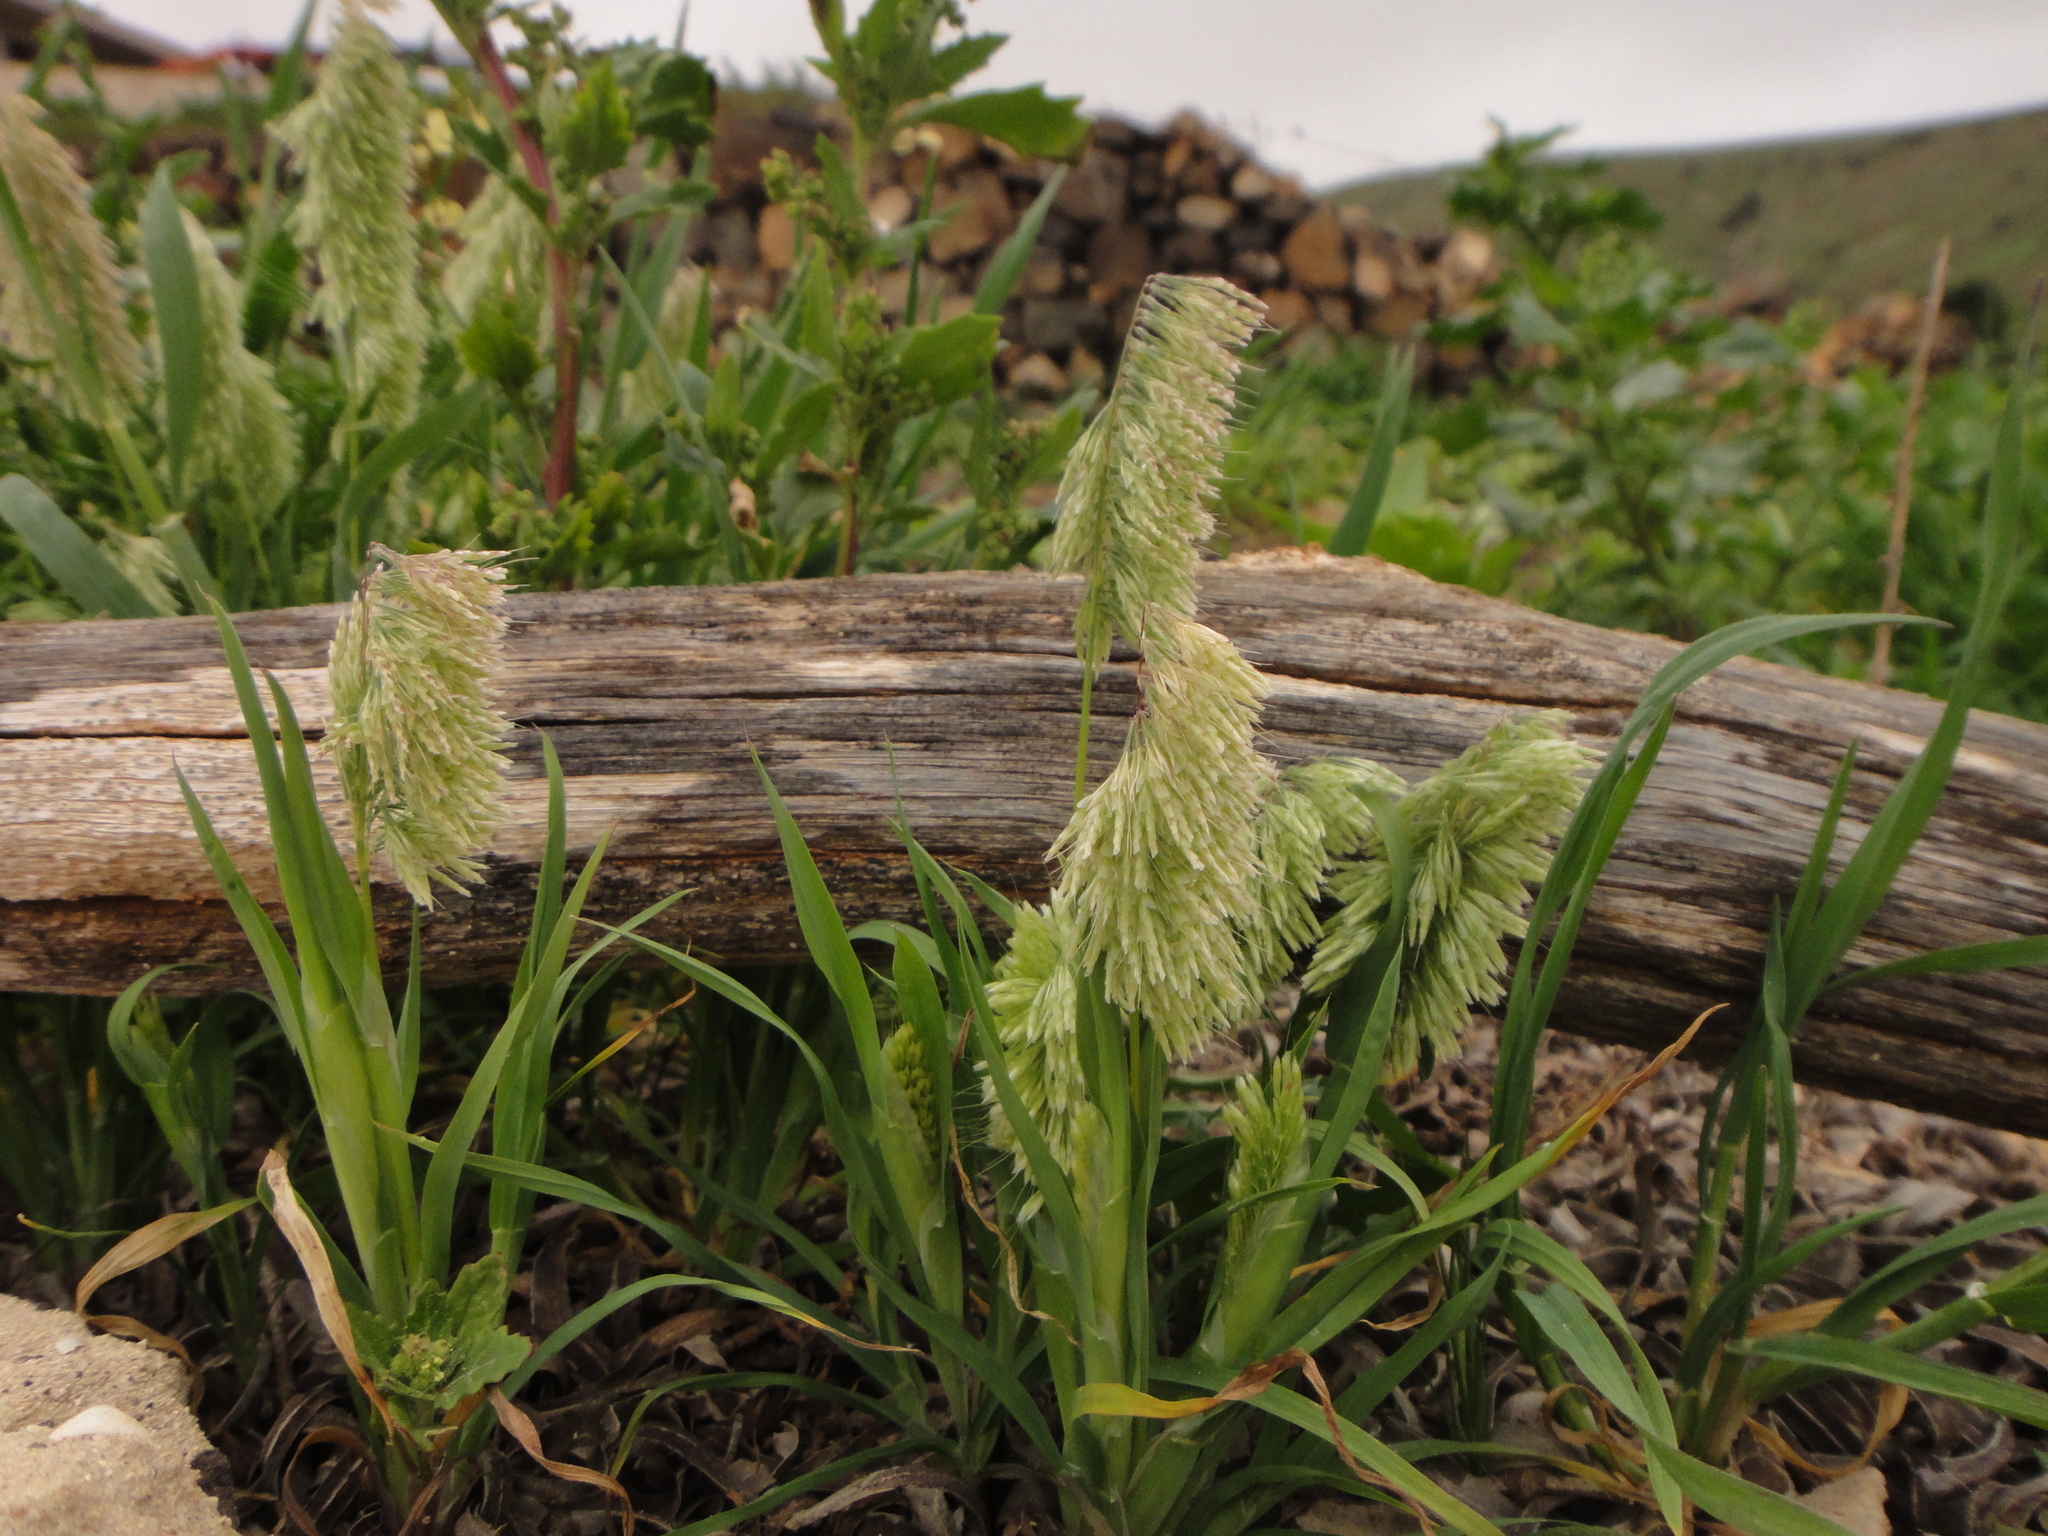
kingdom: Plantae
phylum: Tracheophyta
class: Liliopsida
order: Poales
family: Poaceae
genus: Lamarckia
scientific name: Lamarckia aurea
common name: Golden dog's-tail
